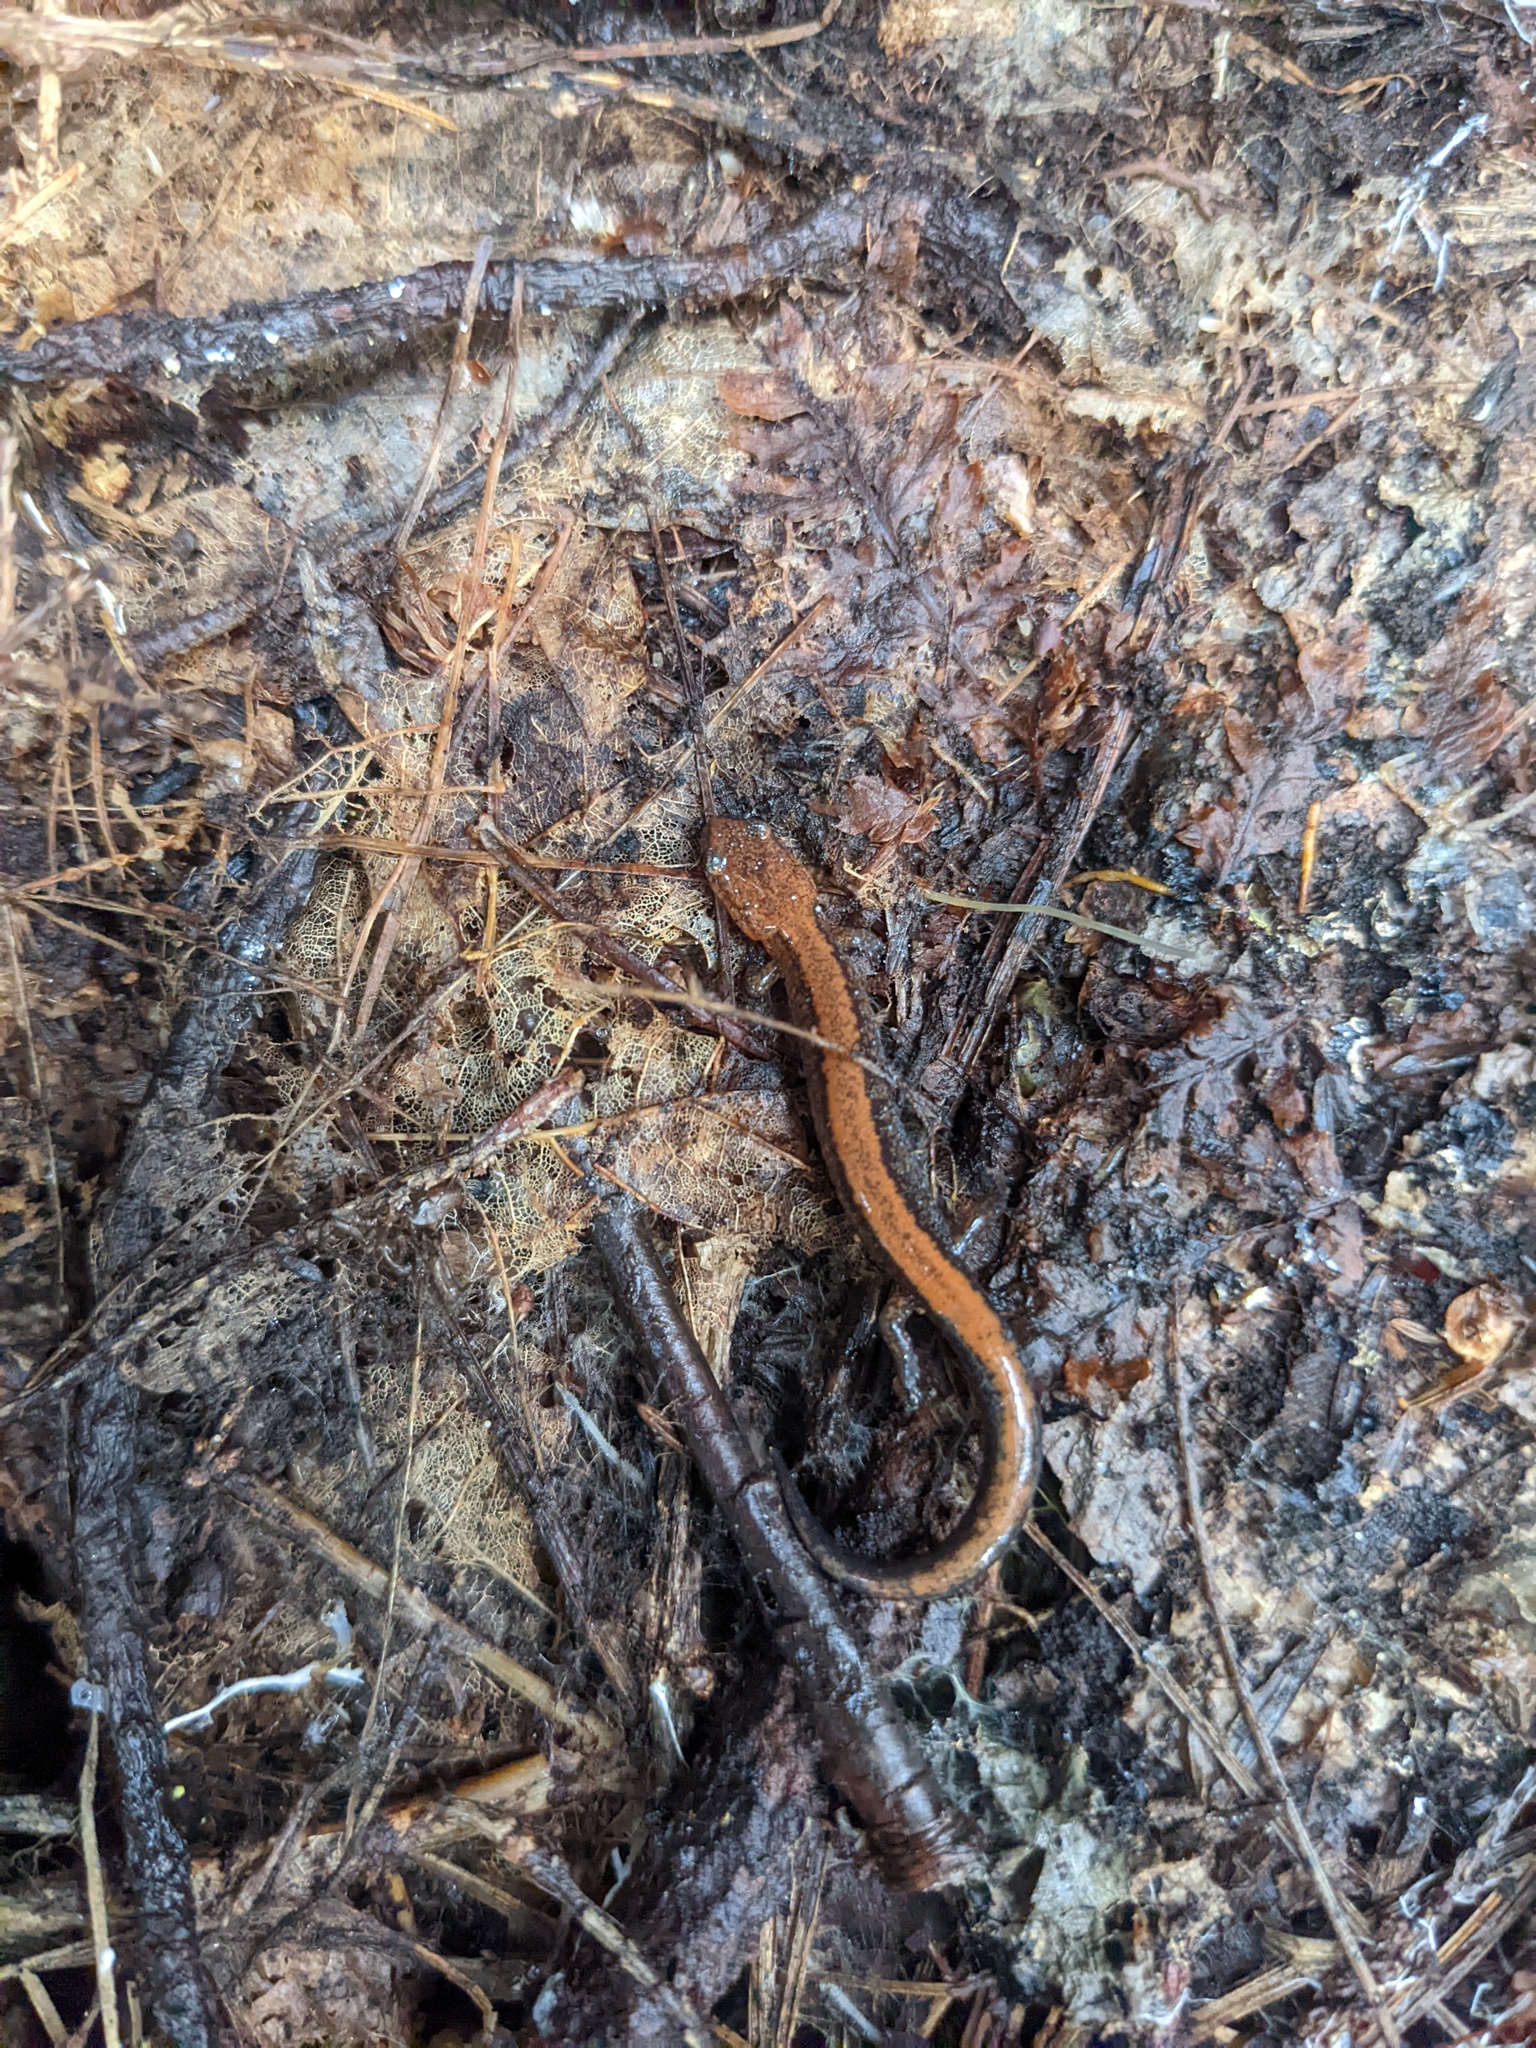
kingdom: Animalia
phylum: Chordata
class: Amphibia
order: Caudata
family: Plethodontidae
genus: Plethodon
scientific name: Plethodon cinereus
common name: Redback salamander
